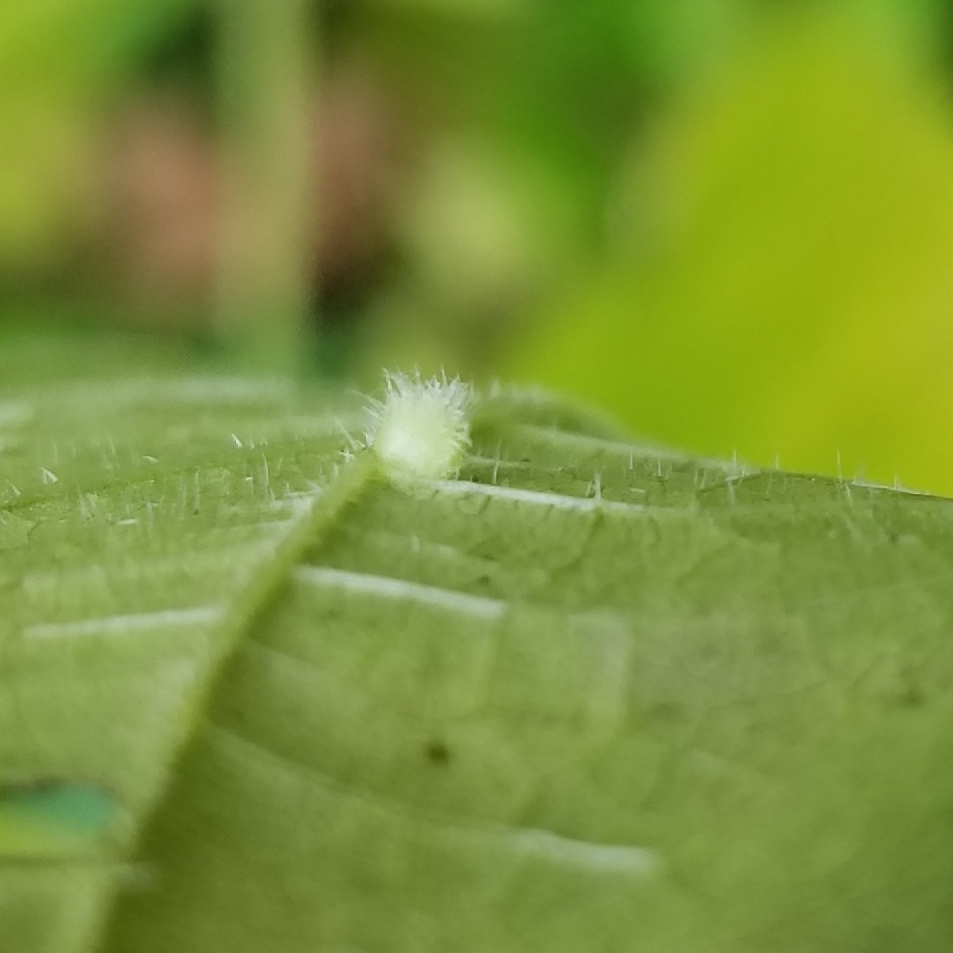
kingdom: Animalia
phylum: Arthropoda
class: Insecta
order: Diptera
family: Cecidomyiidae
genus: Dasineura
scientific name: Dasineura pilosa
